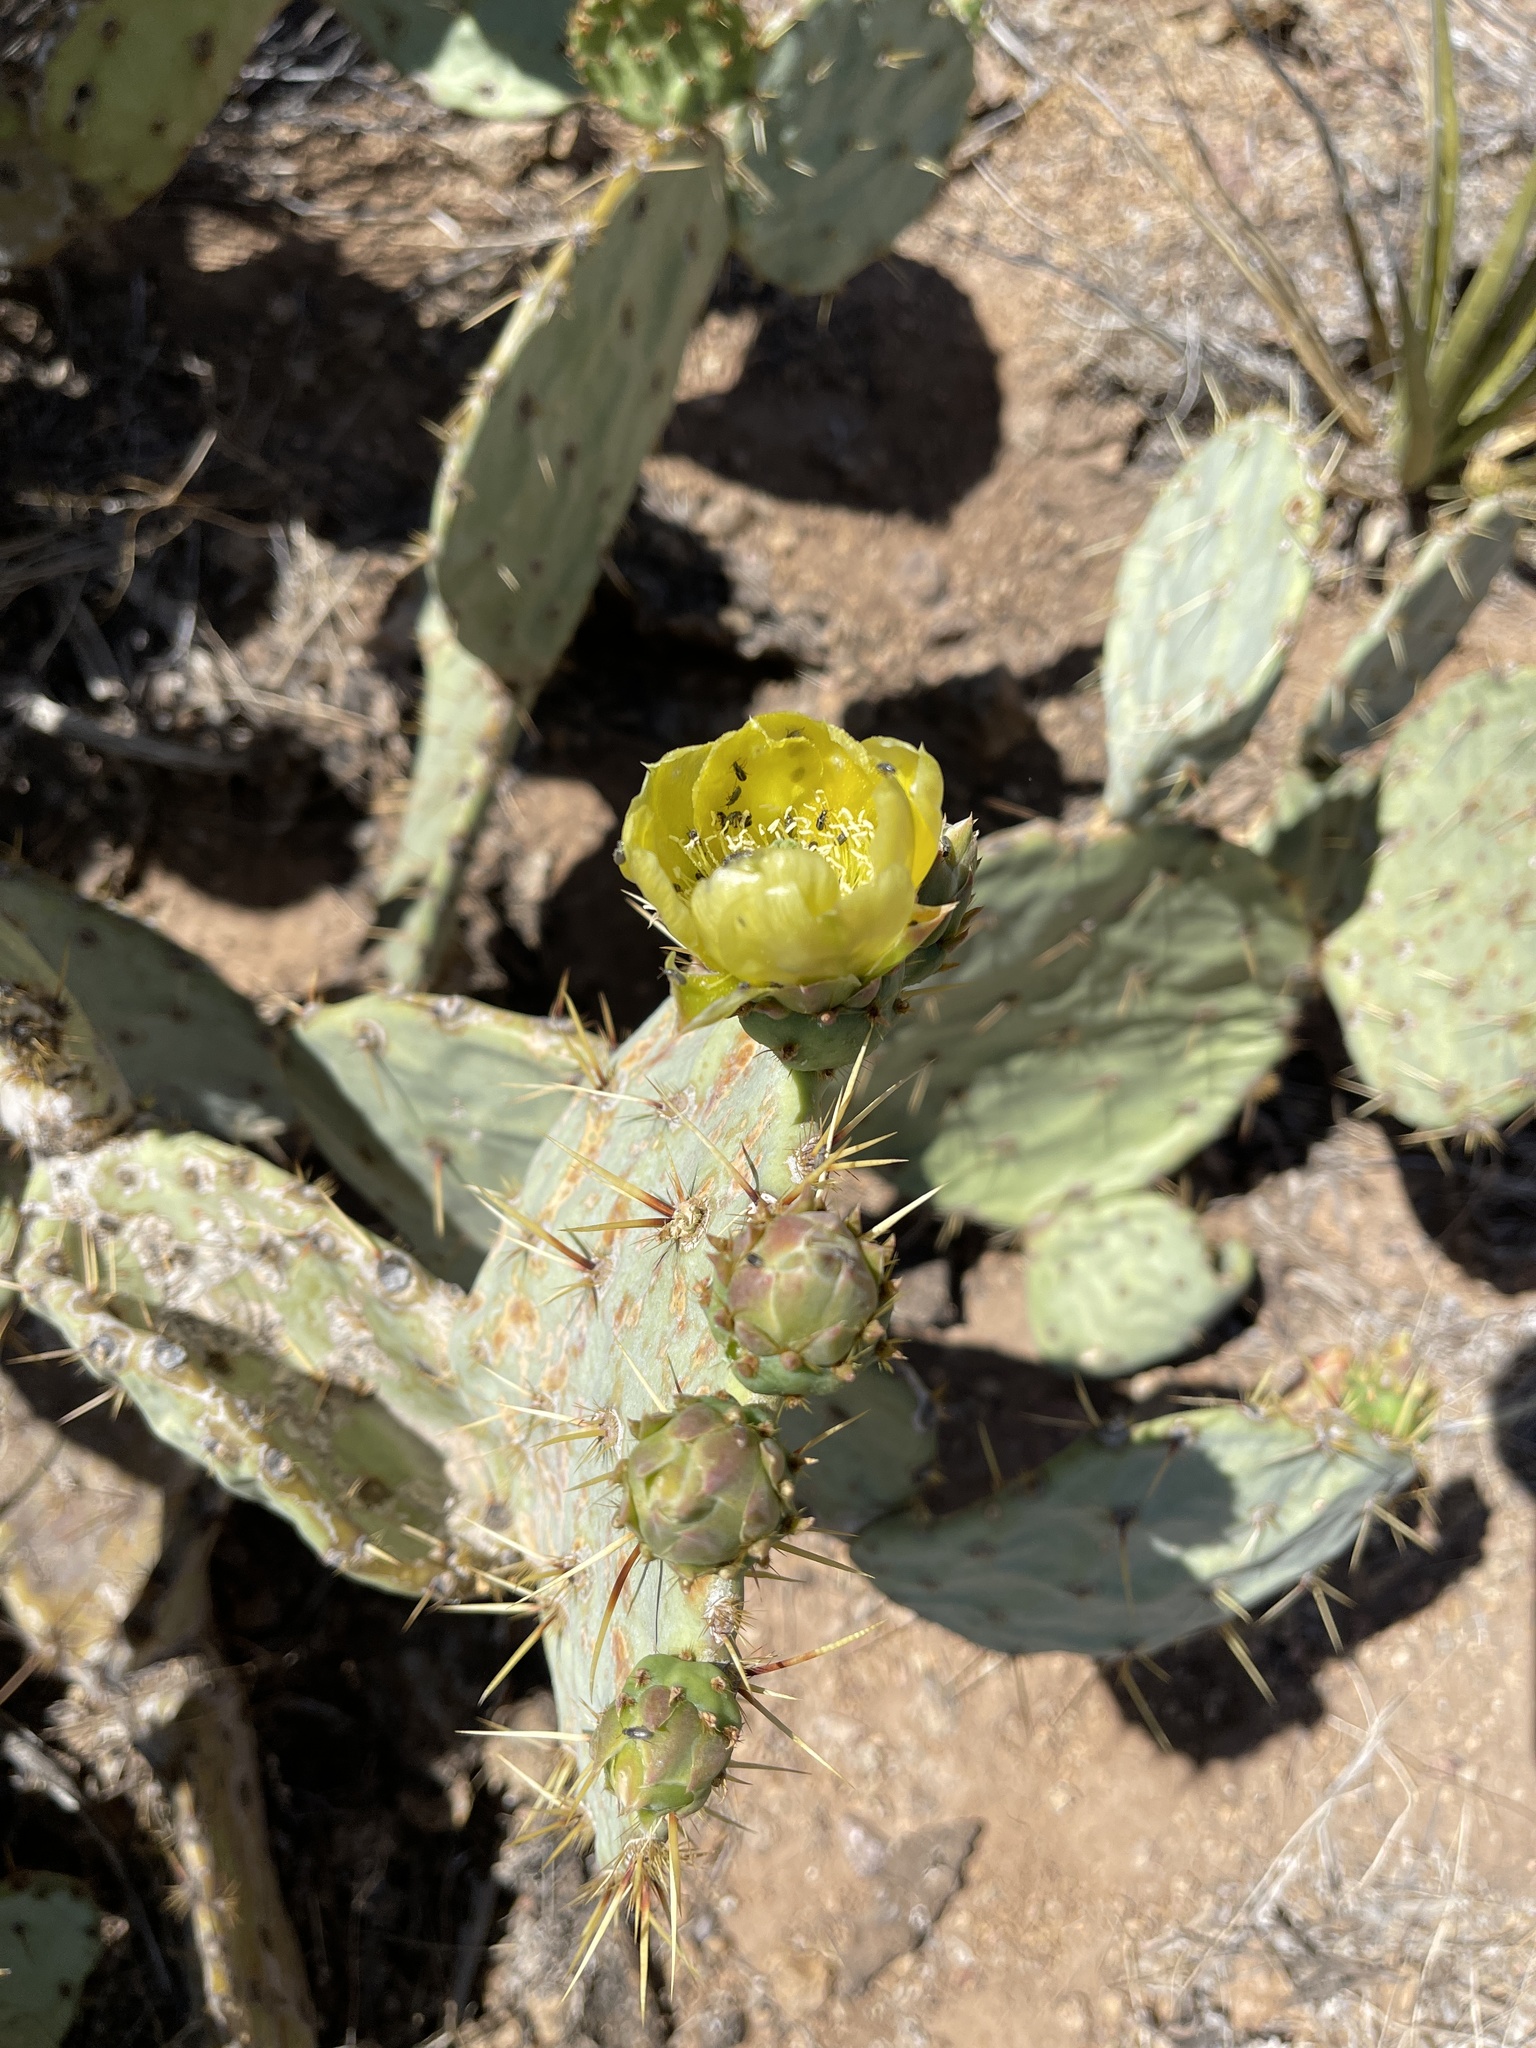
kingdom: Plantae
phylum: Tracheophyta
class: Magnoliopsida
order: Caryophyllales
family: Cactaceae
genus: Opuntia
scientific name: Opuntia engelmannii
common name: Cactus-apple
